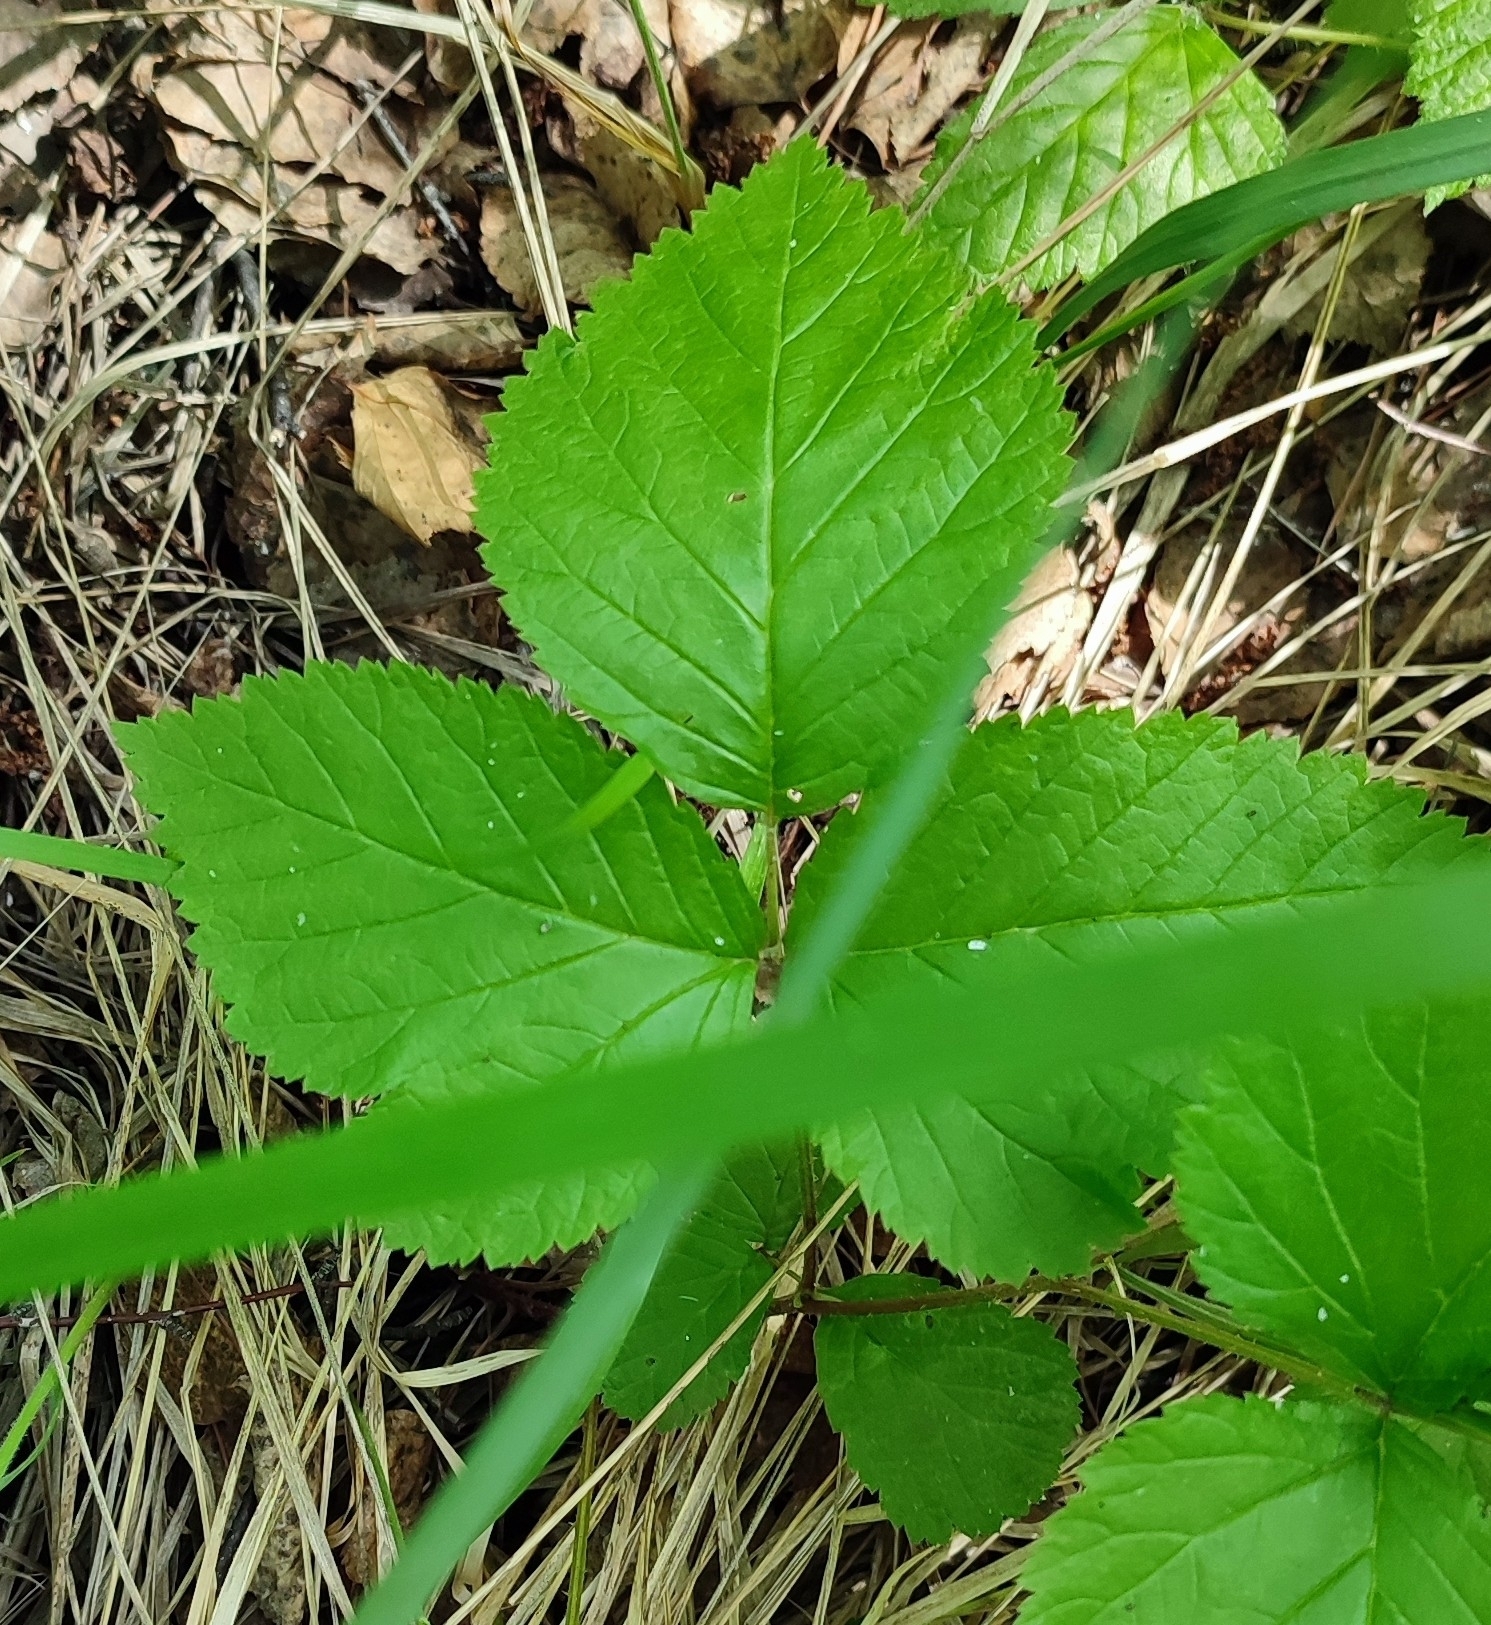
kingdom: Plantae
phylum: Tracheophyta
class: Magnoliopsida
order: Rosales
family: Rosaceae
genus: Rubus
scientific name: Rubus saxatilis
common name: Stone bramble
